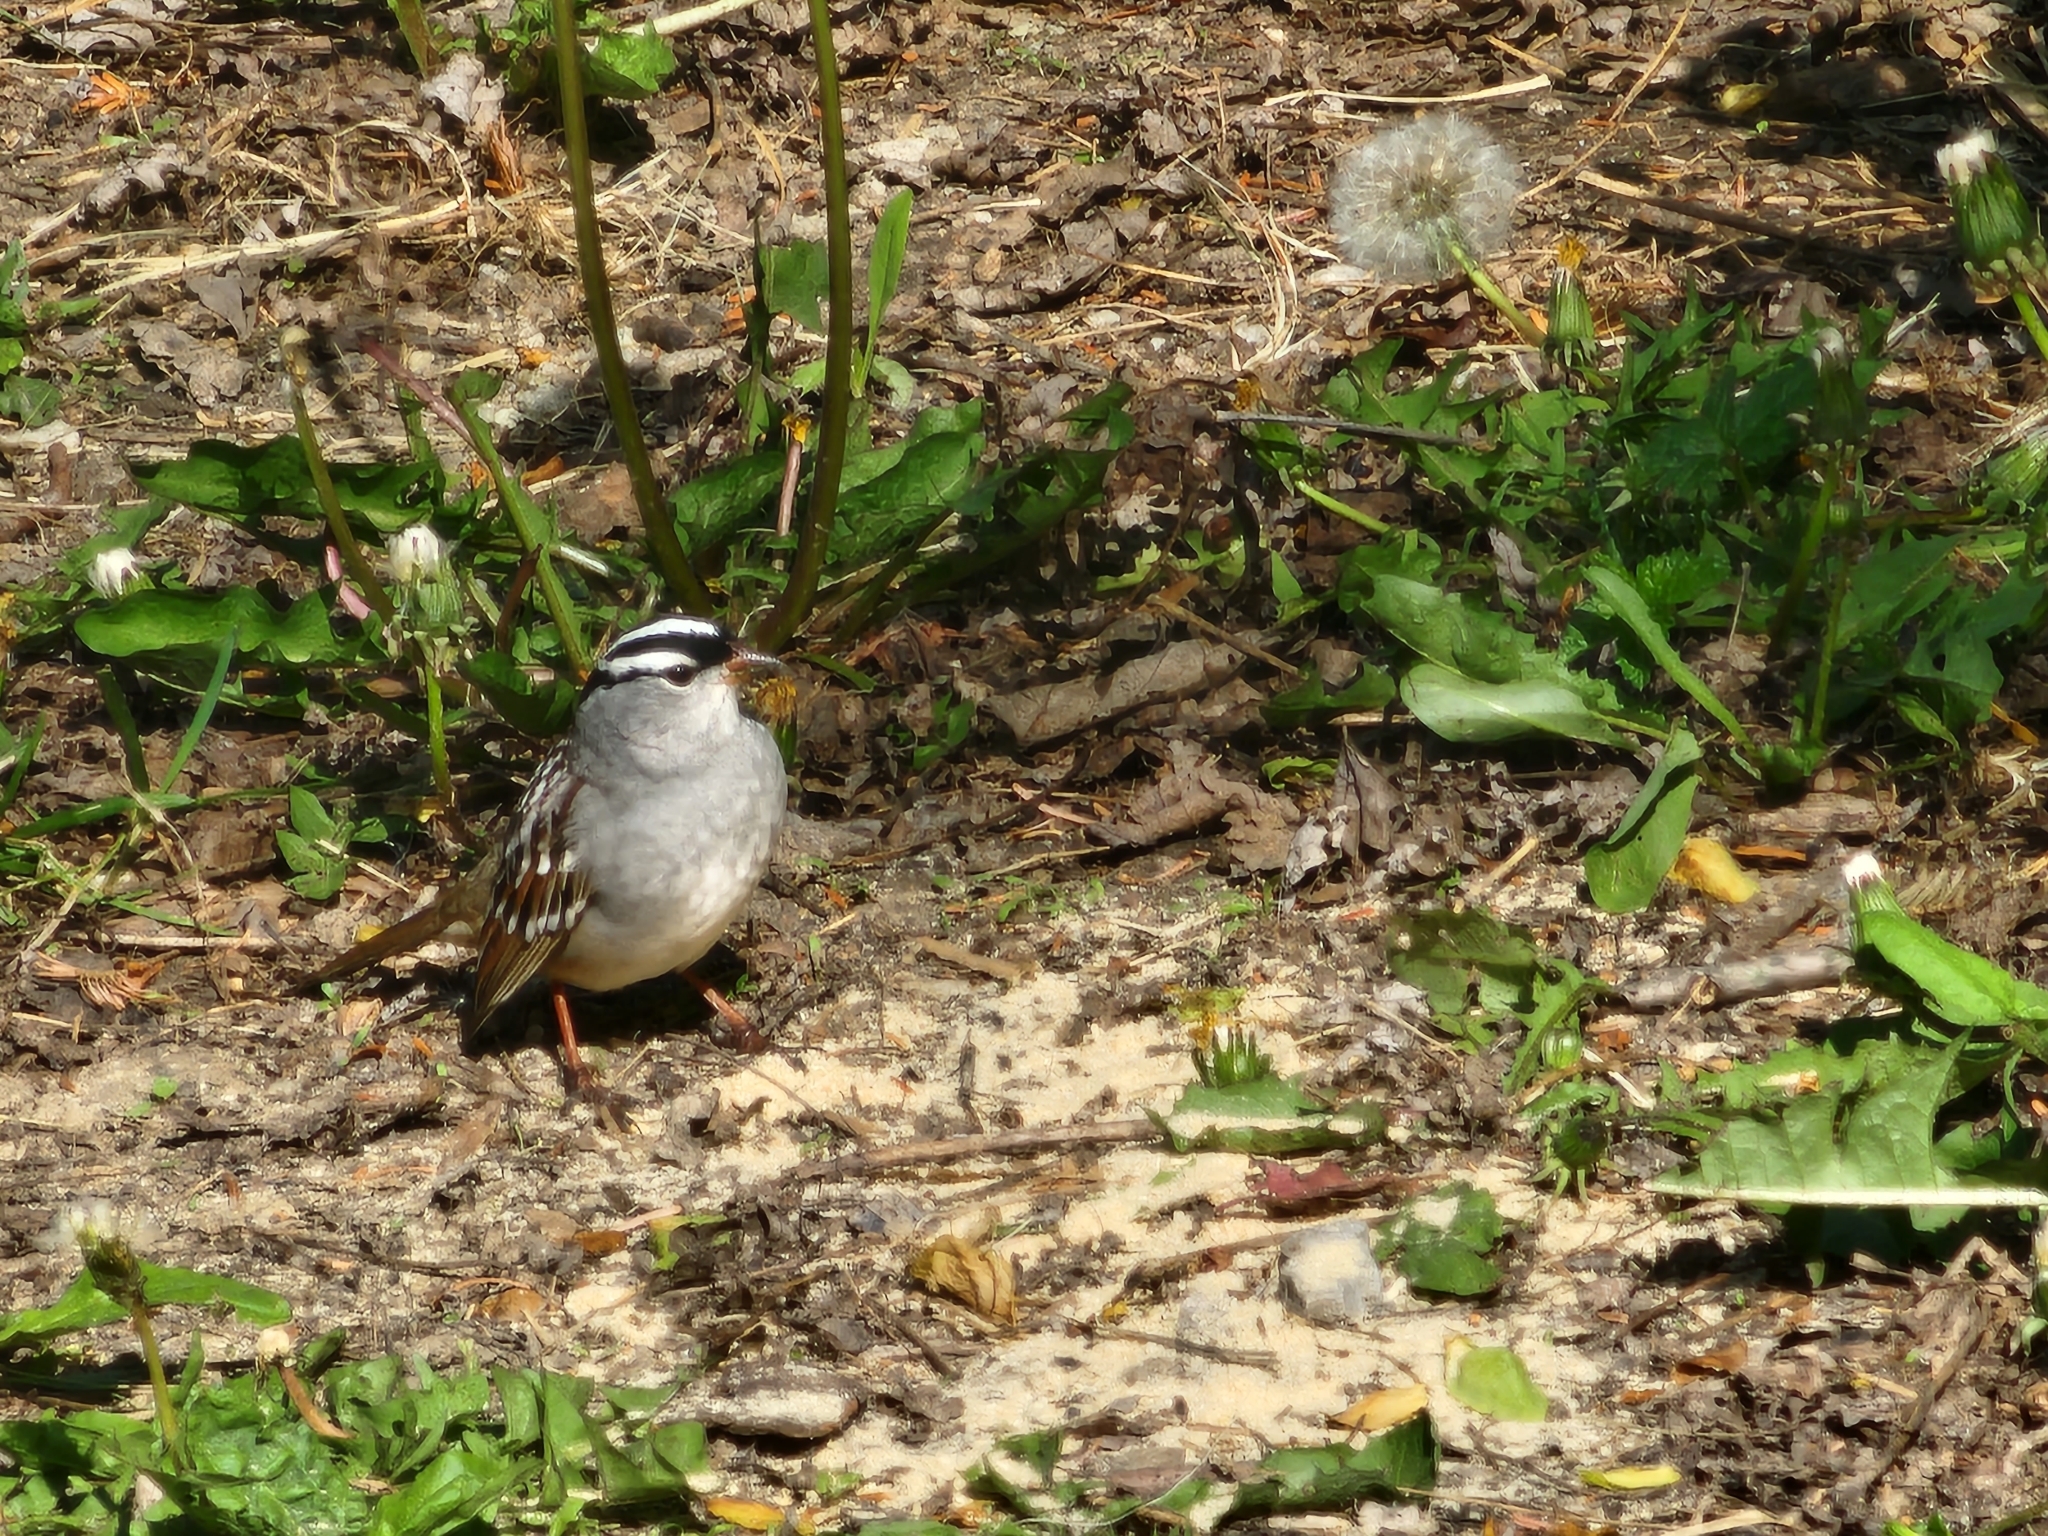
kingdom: Animalia
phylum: Chordata
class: Aves
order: Passeriformes
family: Passerellidae
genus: Zonotrichia
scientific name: Zonotrichia leucophrys
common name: White-crowned sparrow
